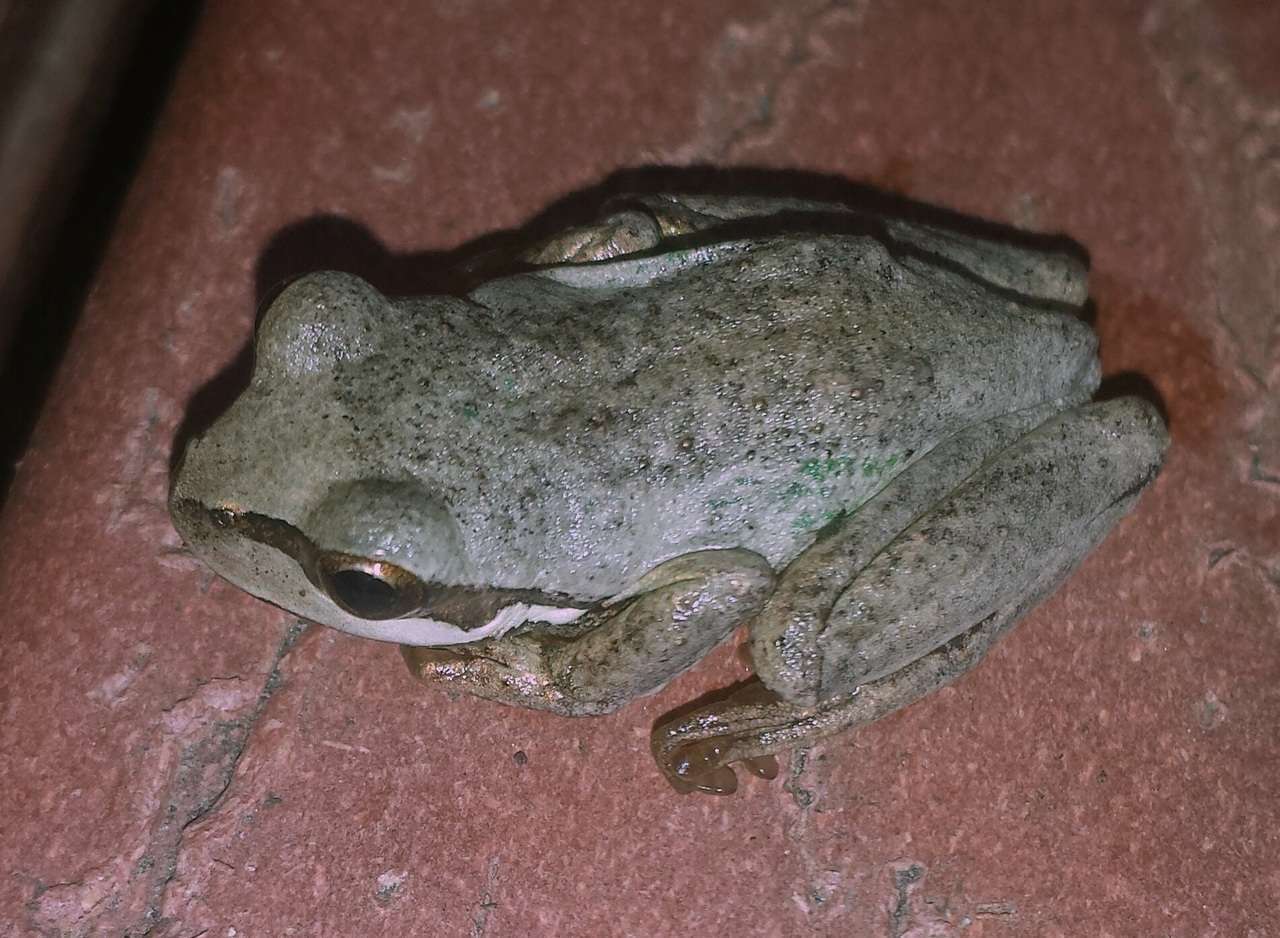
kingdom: Animalia
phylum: Chordata
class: Amphibia
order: Anura
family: Pelodryadidae
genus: Litoria
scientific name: Litoria ewingii
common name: Southern brown tree frog
